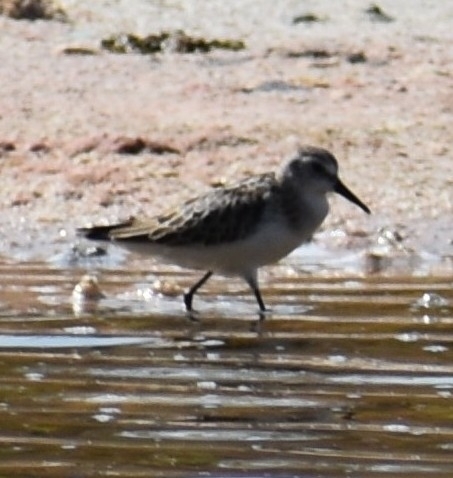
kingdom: Animalia
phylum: Chordata
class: Aves
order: Charadriiformes
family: Scolopacidae
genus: Calidris
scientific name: Calidris minuta
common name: Little stint
